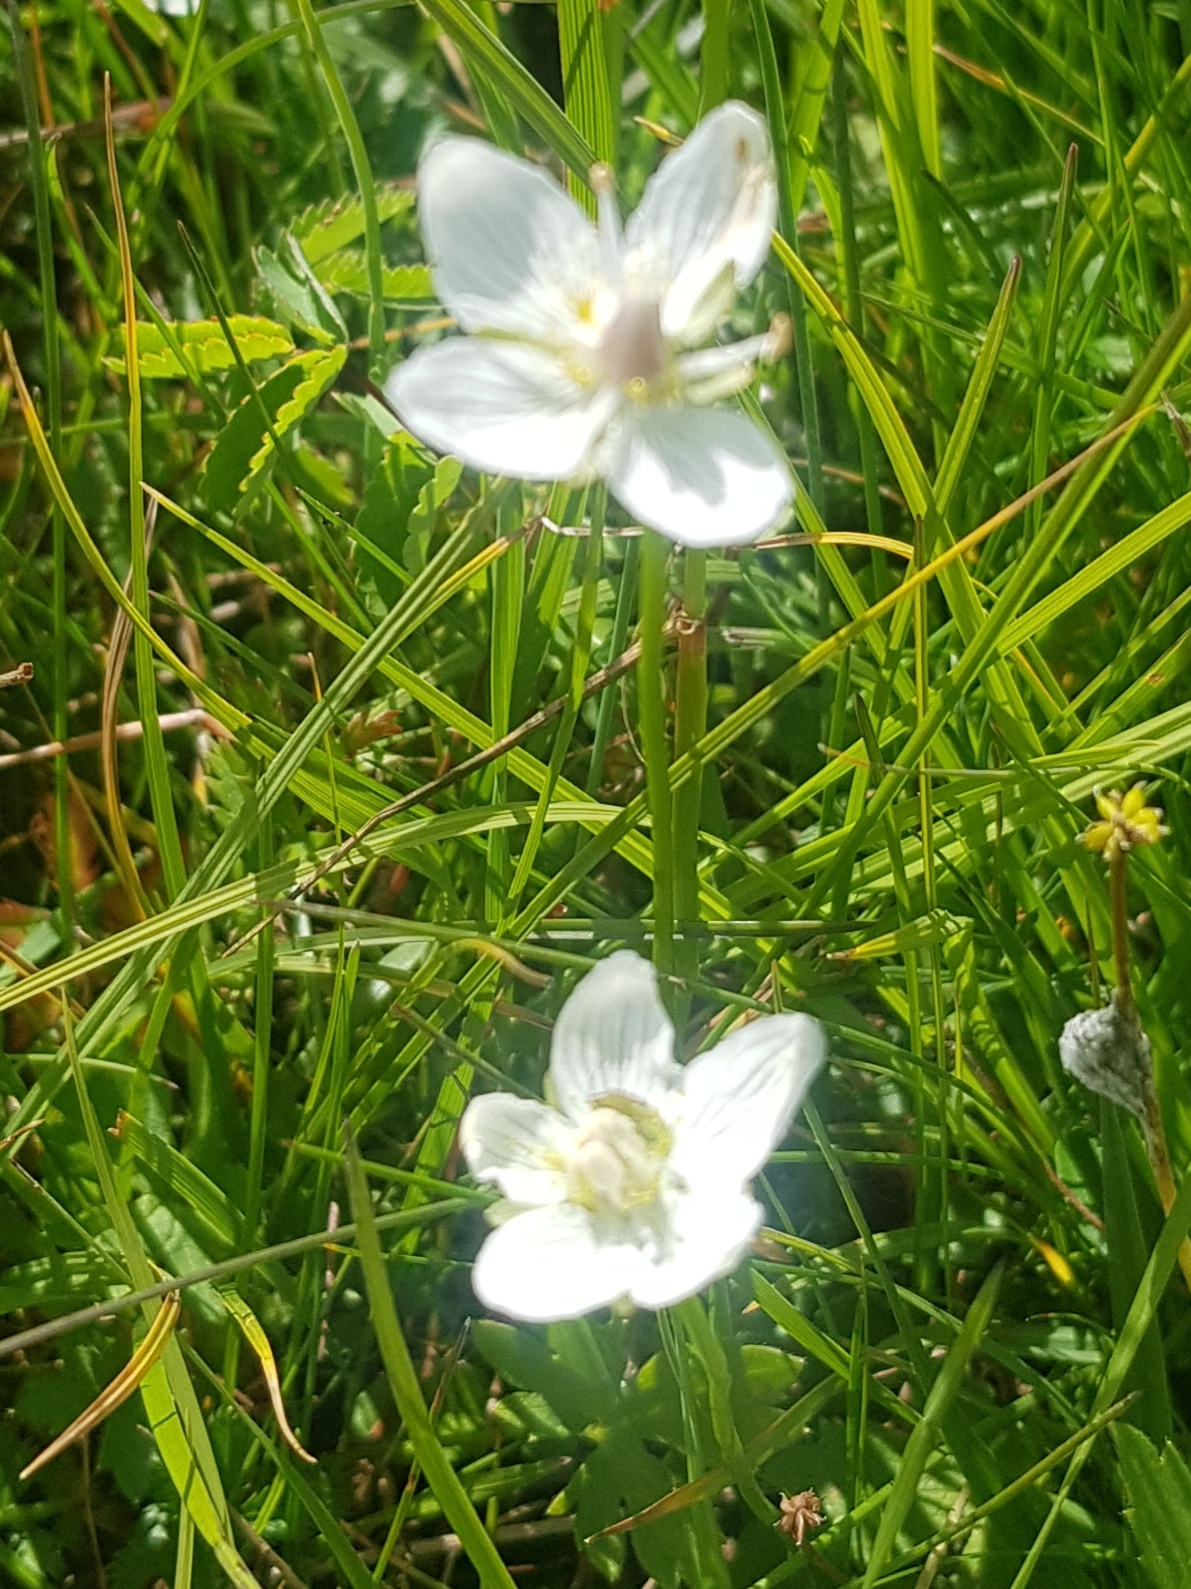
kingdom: Plantae
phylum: Tracheophyta
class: Magnoliopsida
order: Celastrales
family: Parnassiaceae
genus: Parnassia
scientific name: Parnassia palustris
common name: Grass-of-parnassus
